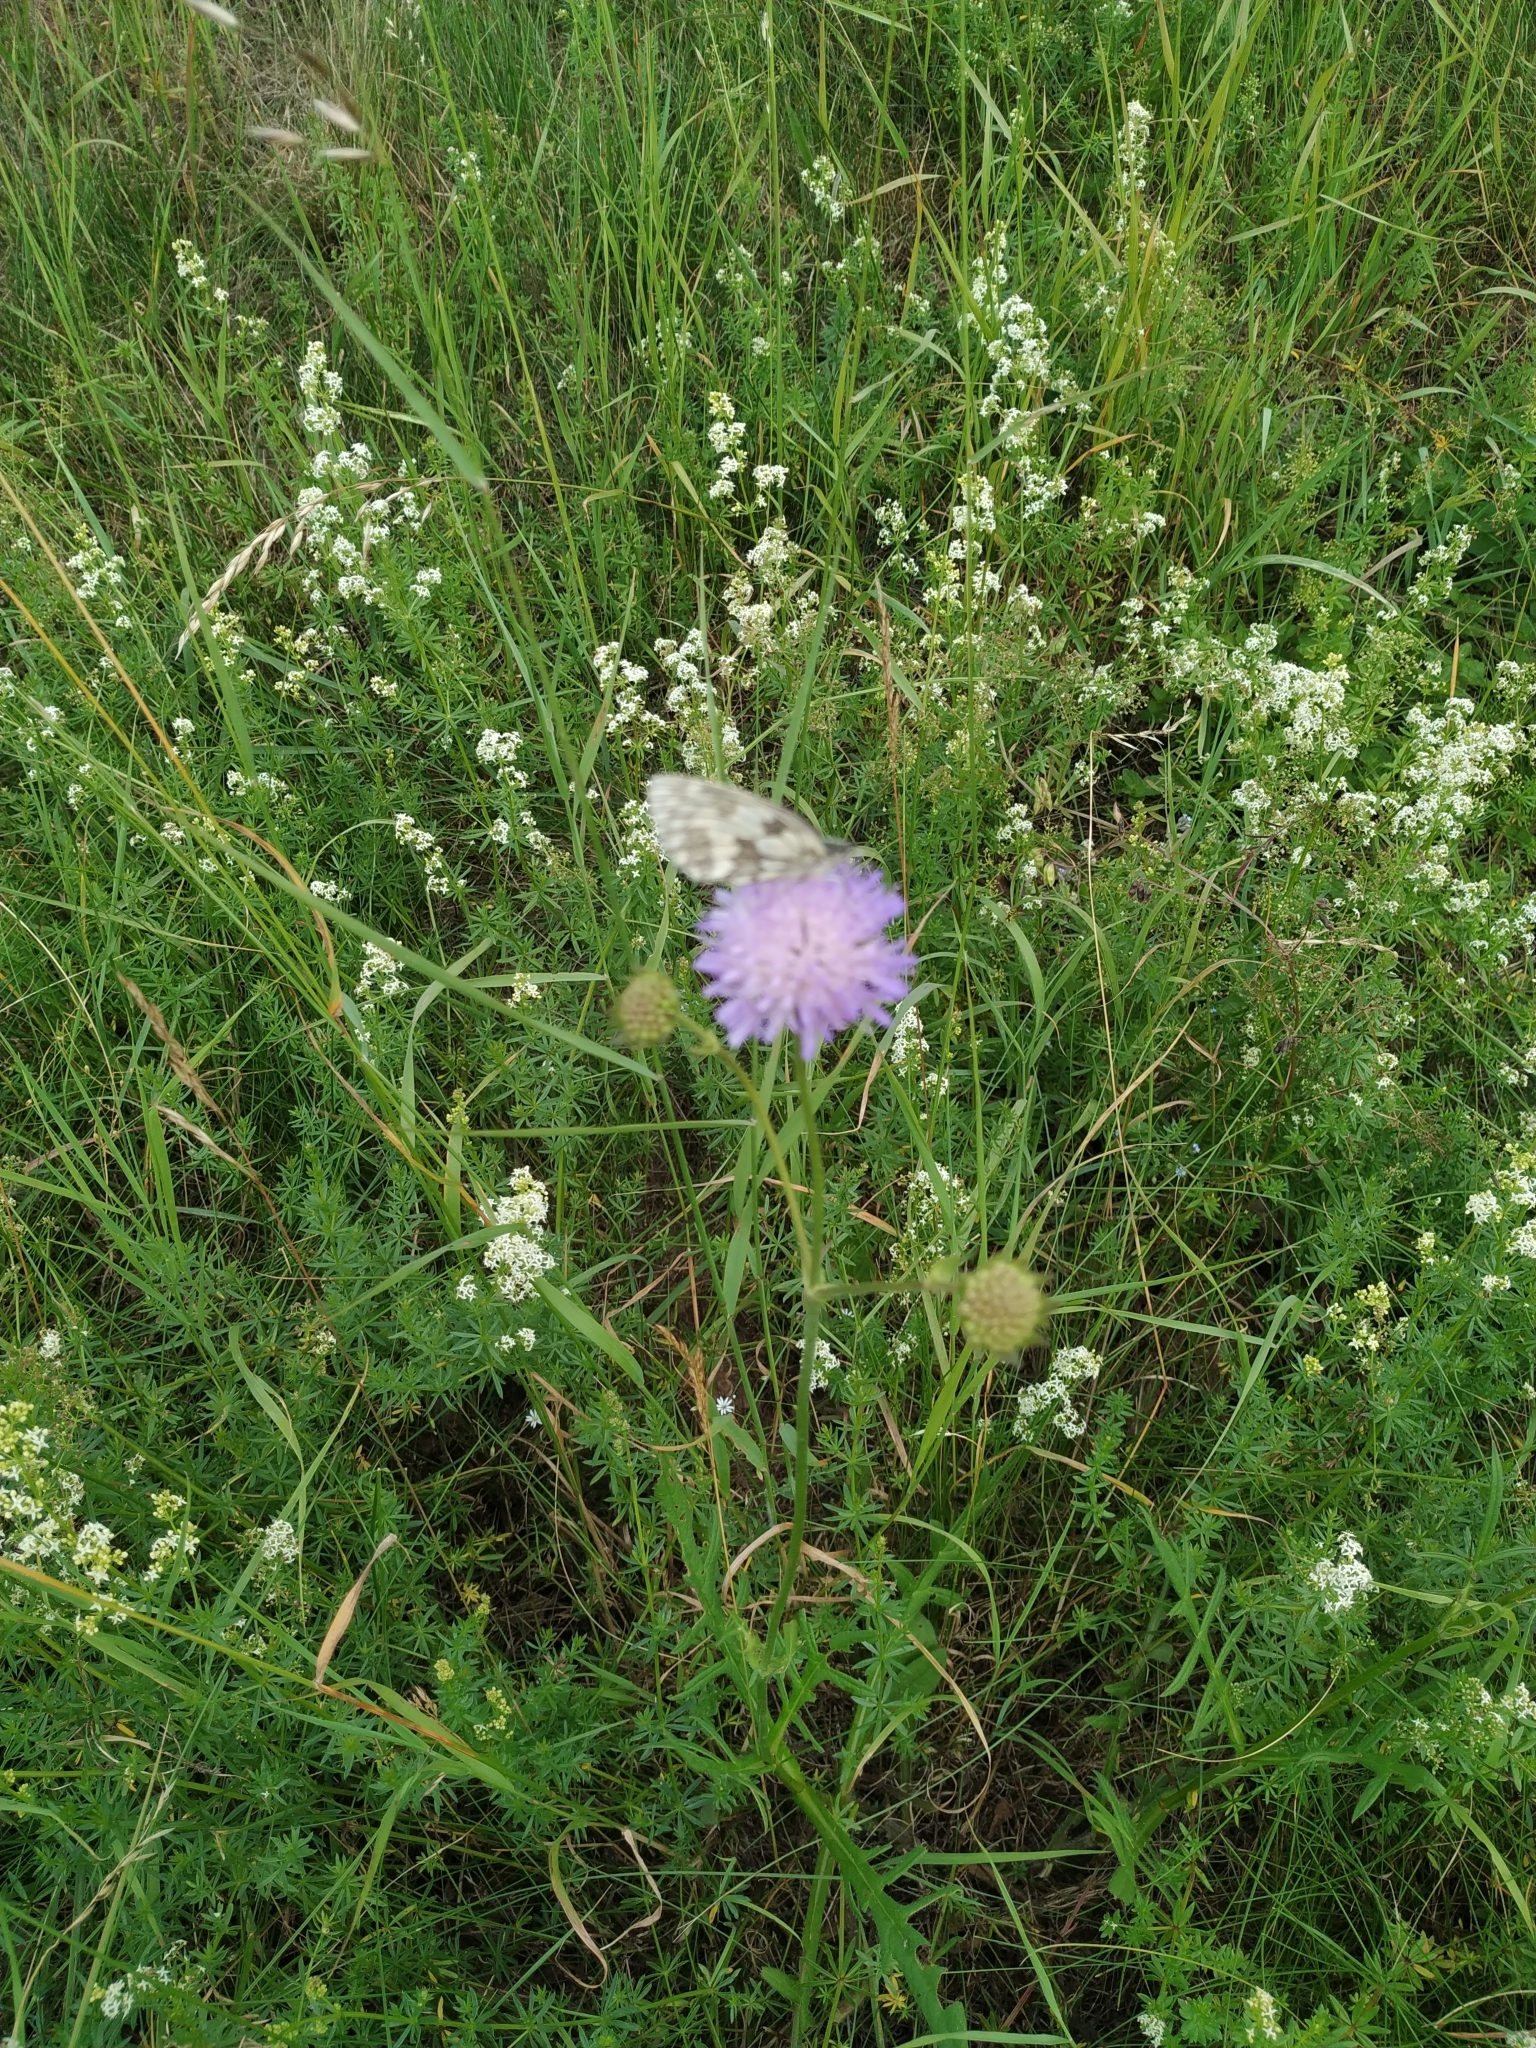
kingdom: Plantae
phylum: Tracheophyta
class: Magnoliopsida
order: Dipsacales
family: Caprifoliaceae
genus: Knautia
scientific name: Knautia arvensis
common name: Field scabiosa
